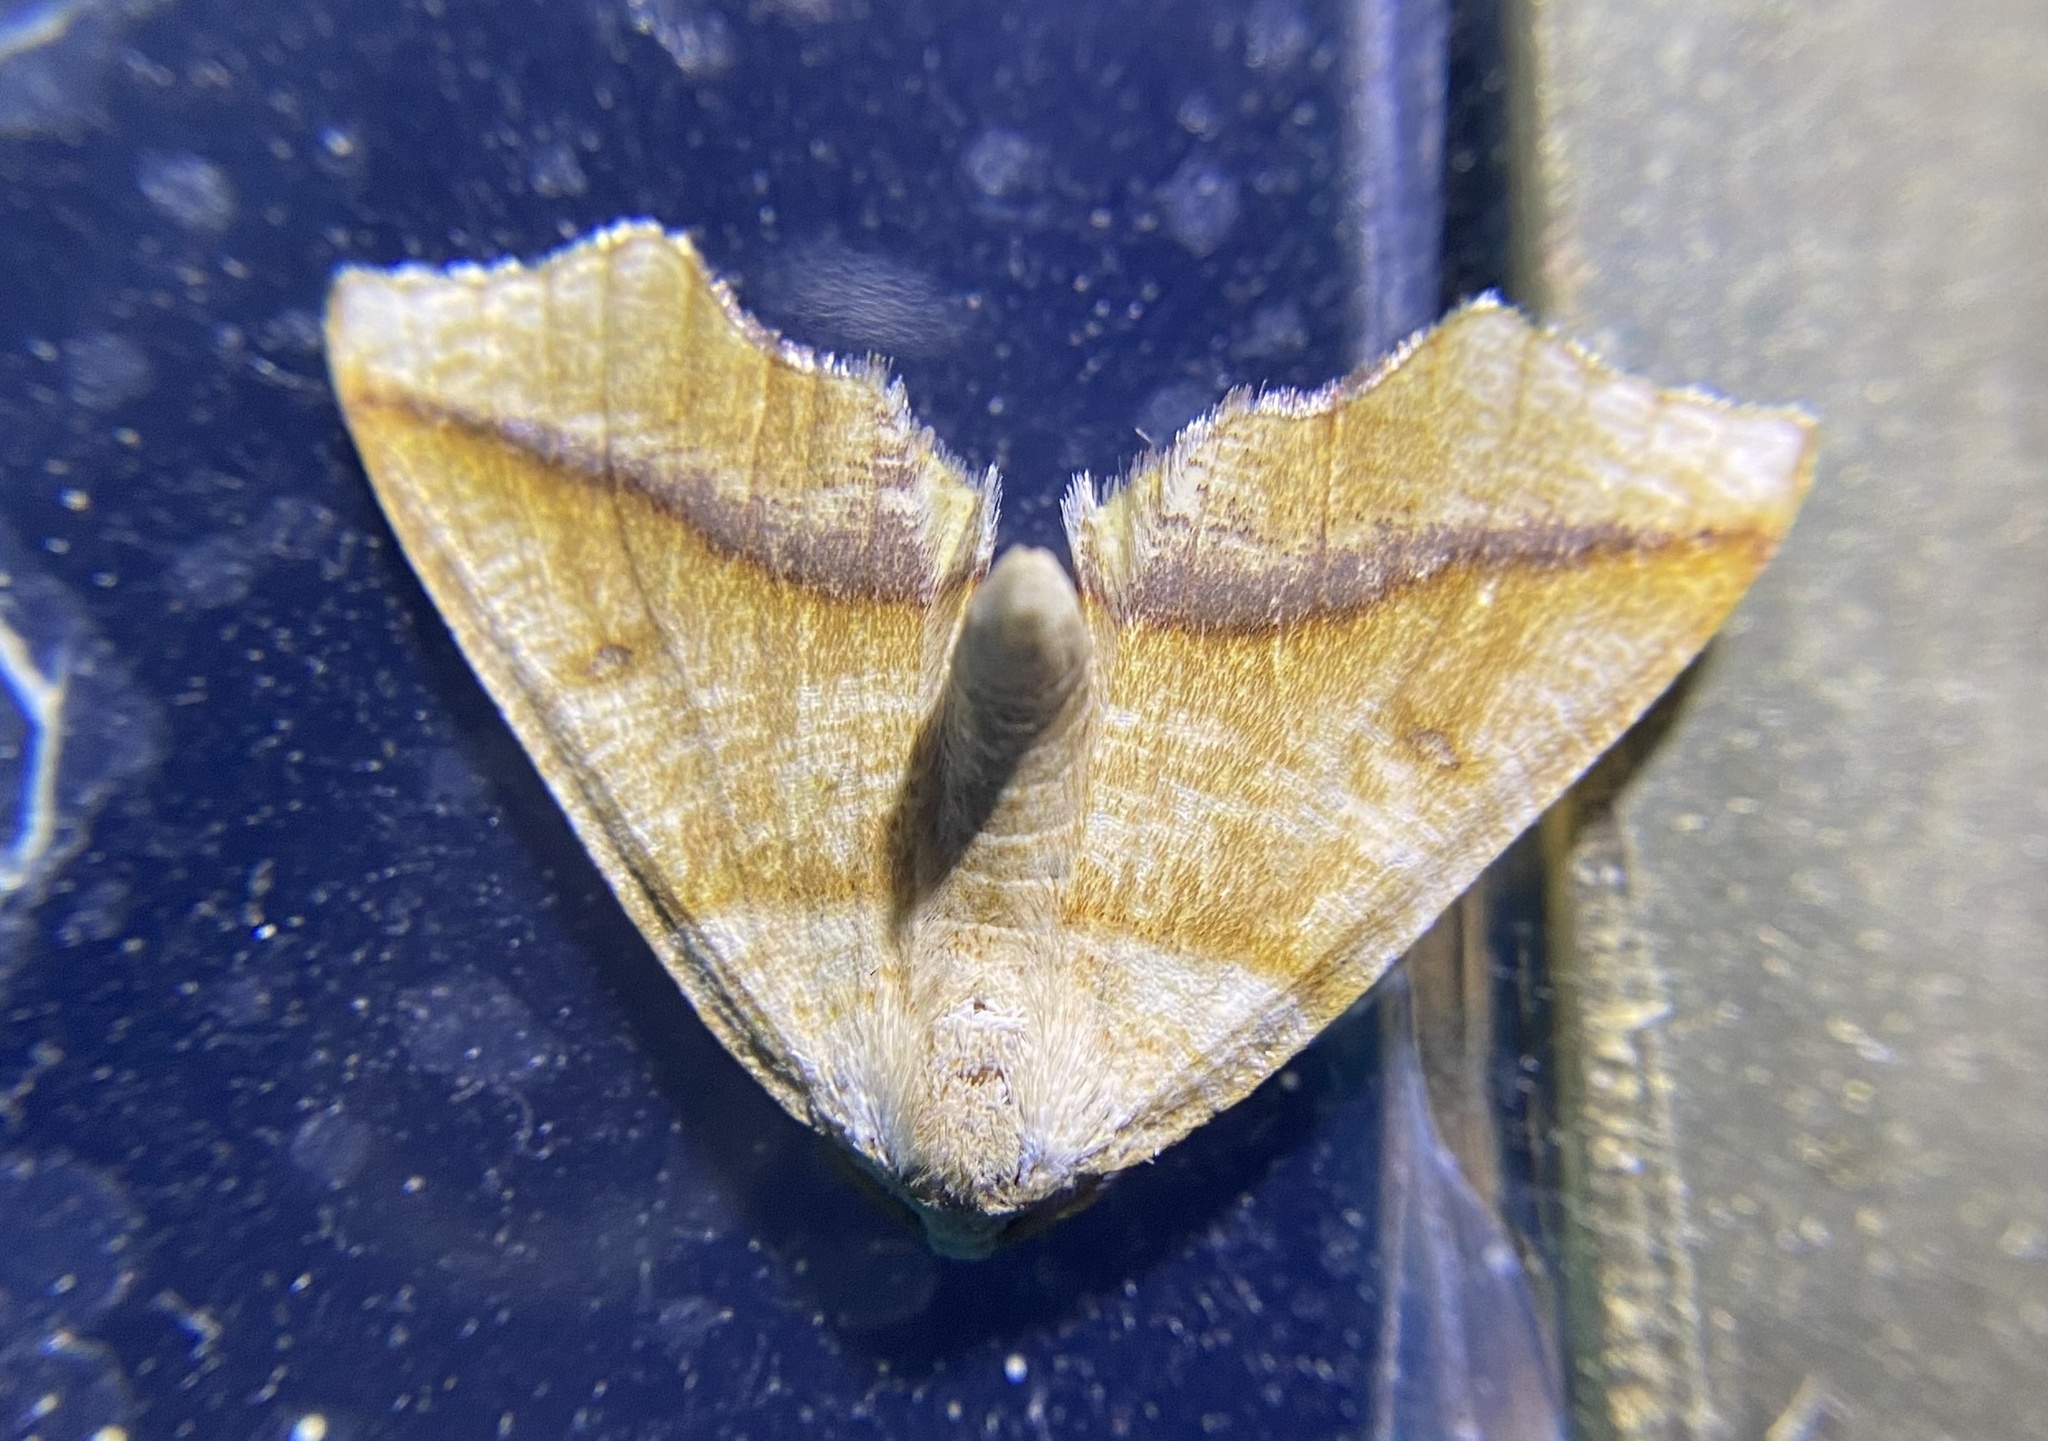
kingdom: Animalia
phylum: Arthropoda
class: Insecta
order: Lepidoptera
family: Geometridae
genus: Plagodis
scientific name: Plagodis alcoolaria
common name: Hollow-spotted plagodis
